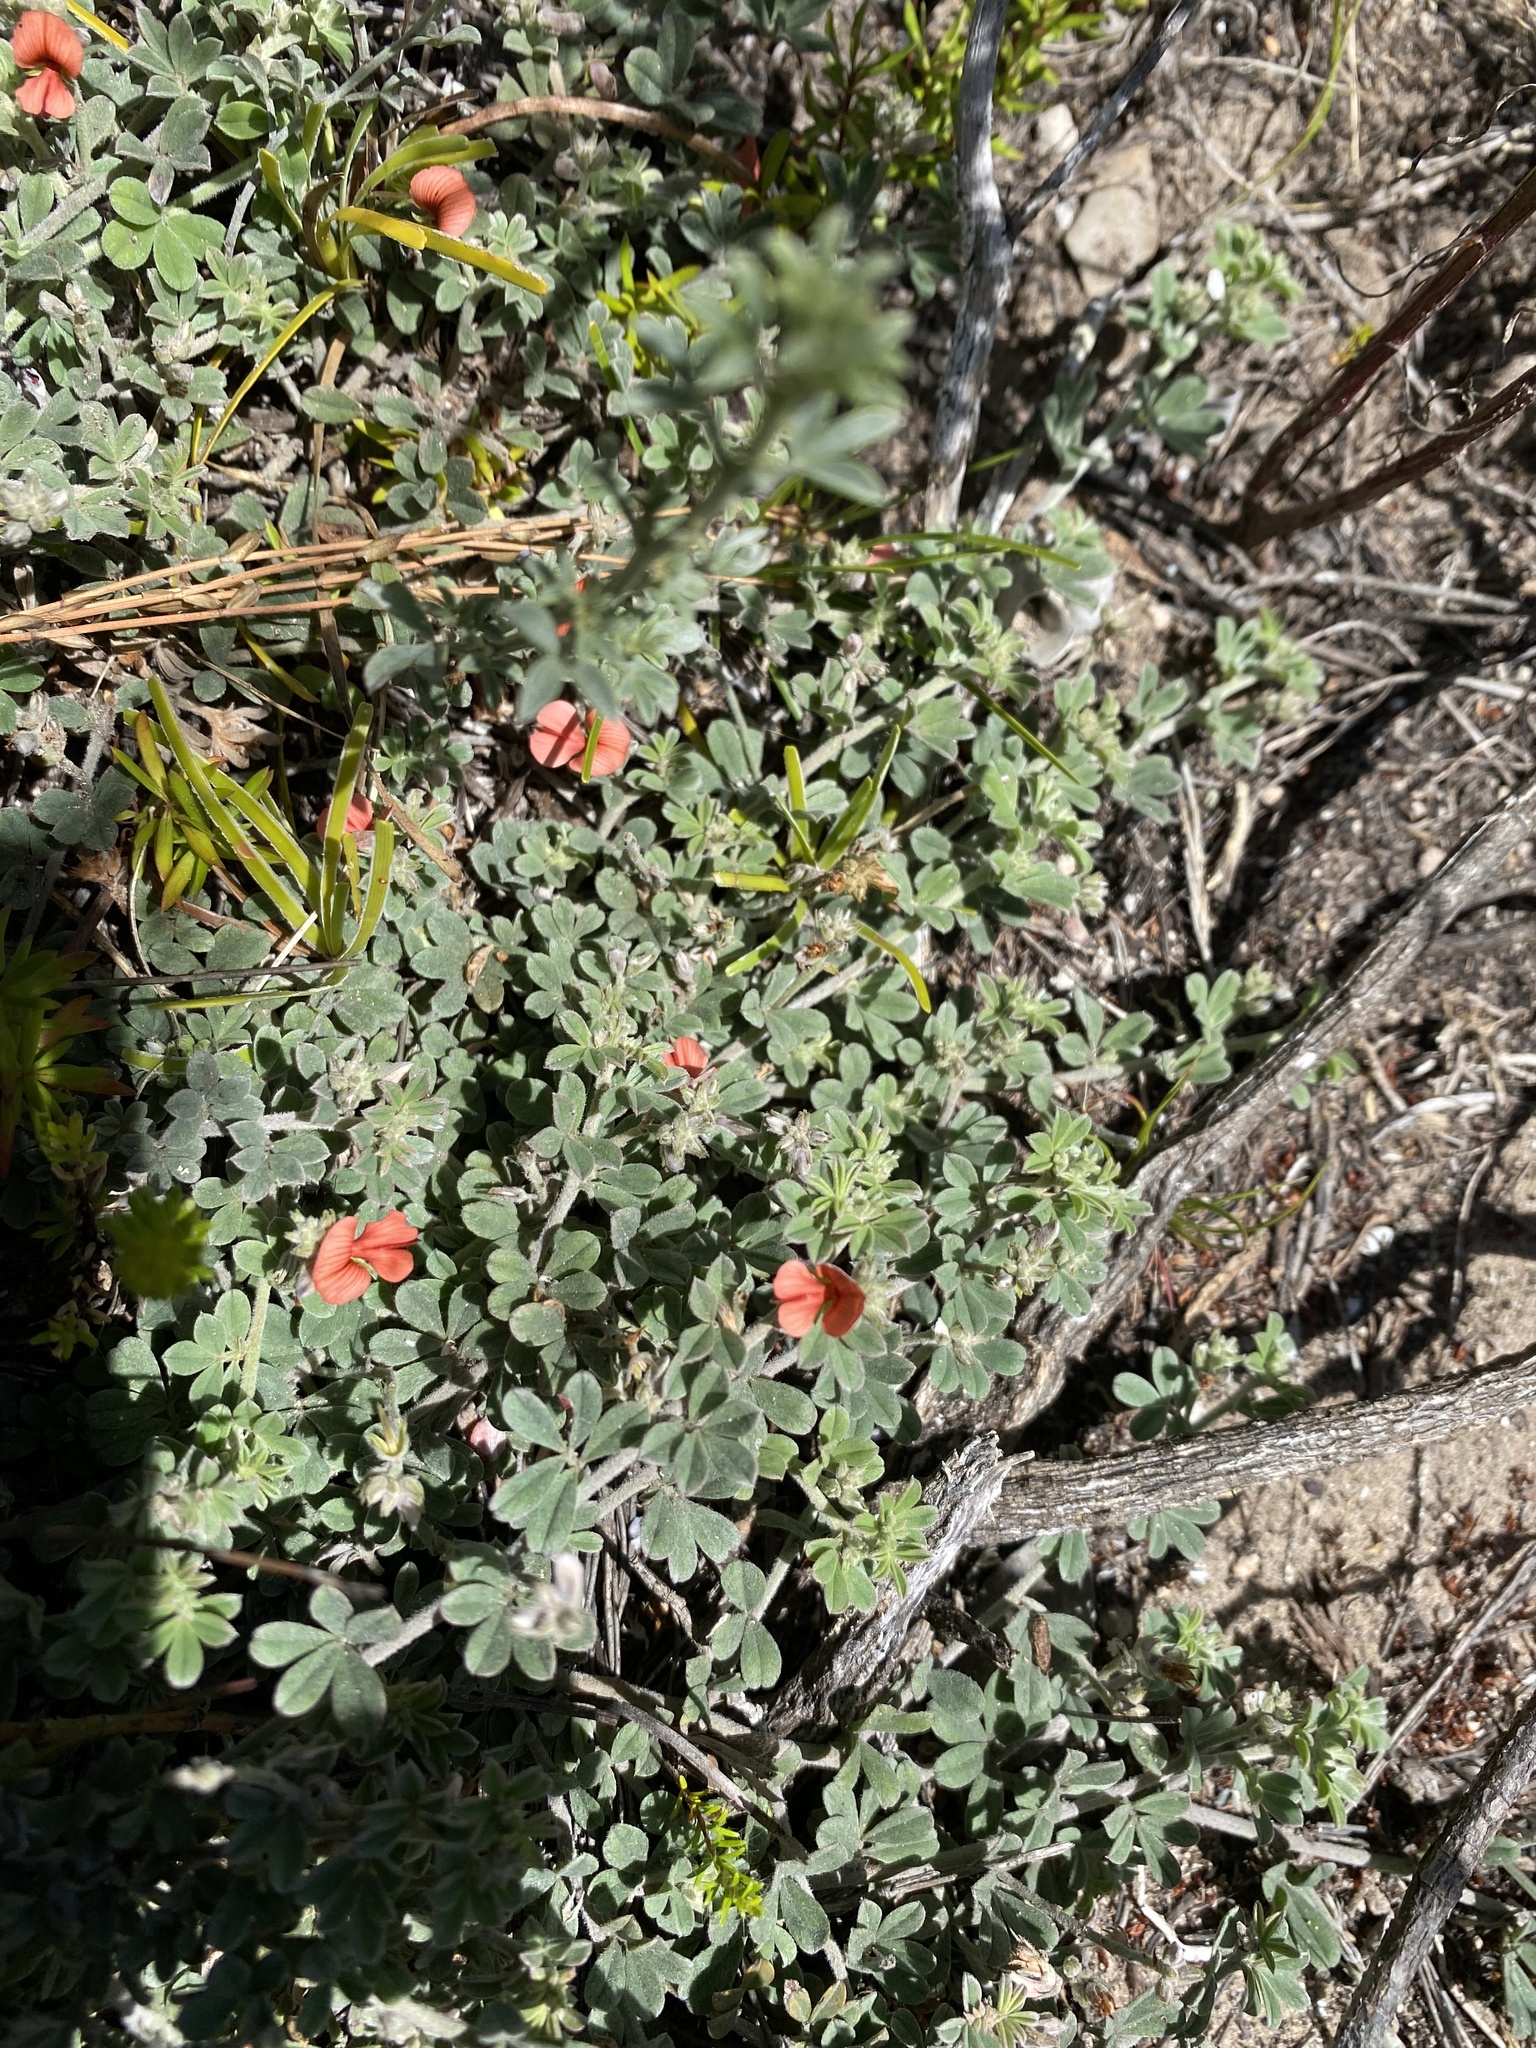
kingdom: Plantae
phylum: Tracheophyta
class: Magnoliopsida
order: Fabales
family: Fabaceae
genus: Indigofera
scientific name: Indigofera priorii
